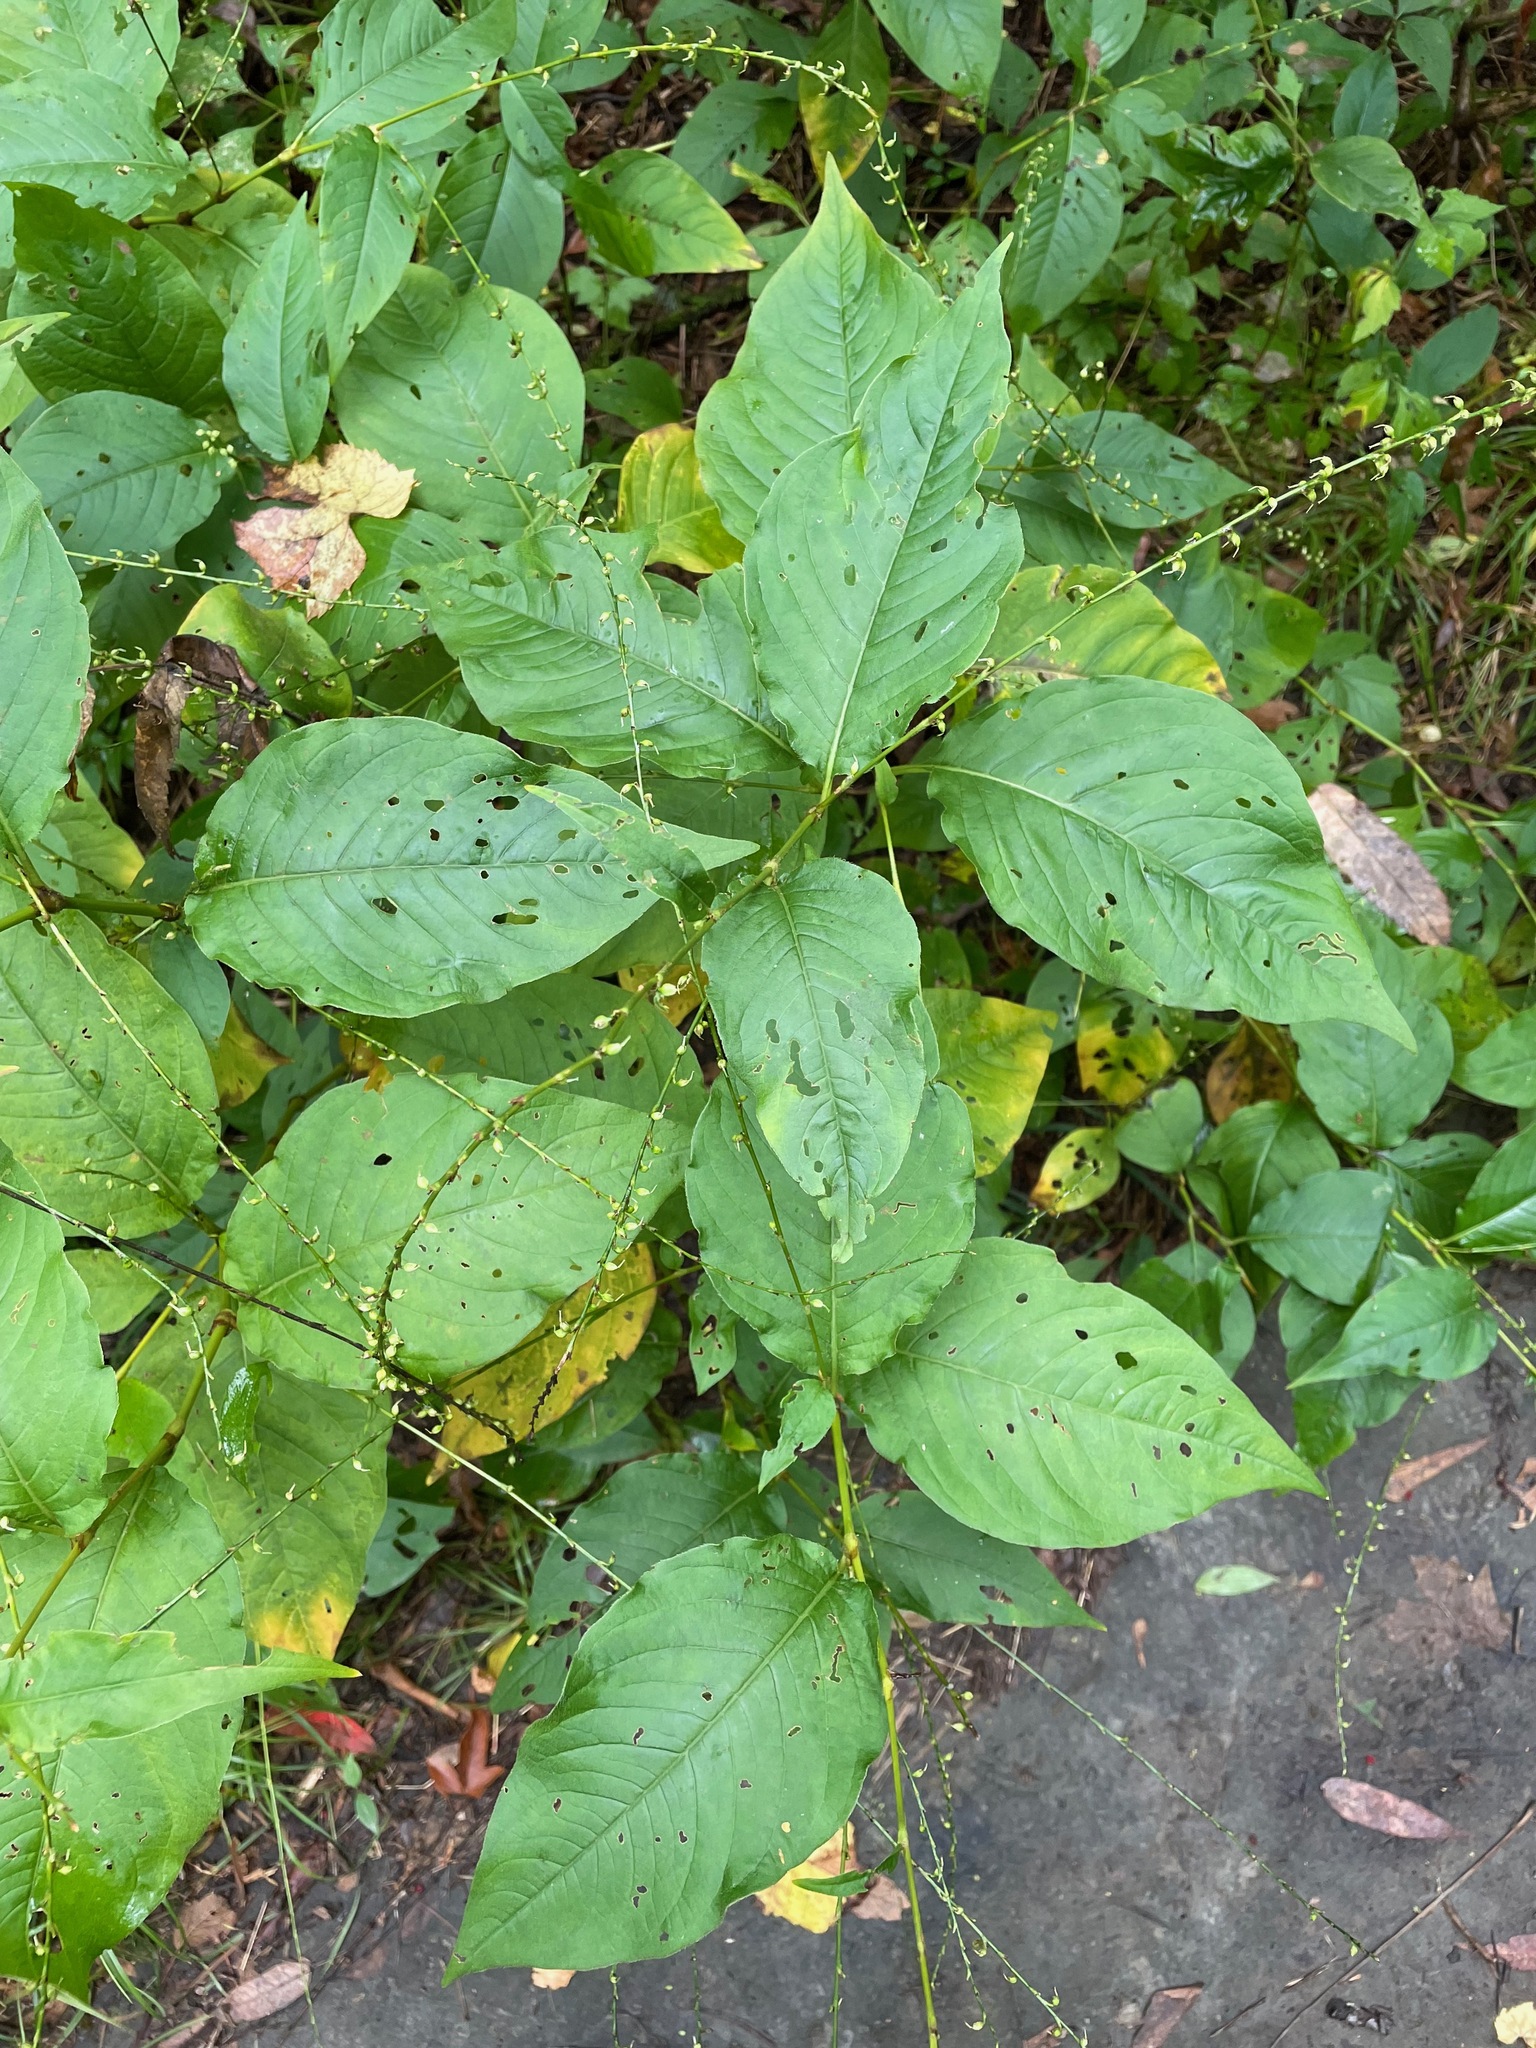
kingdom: Plantae
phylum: Tracheophyta
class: Magnoliopsida
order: Caryophyllales
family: Polygonaceae
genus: Persicaria
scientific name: Persicaria virginiana
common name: Jumpseed
